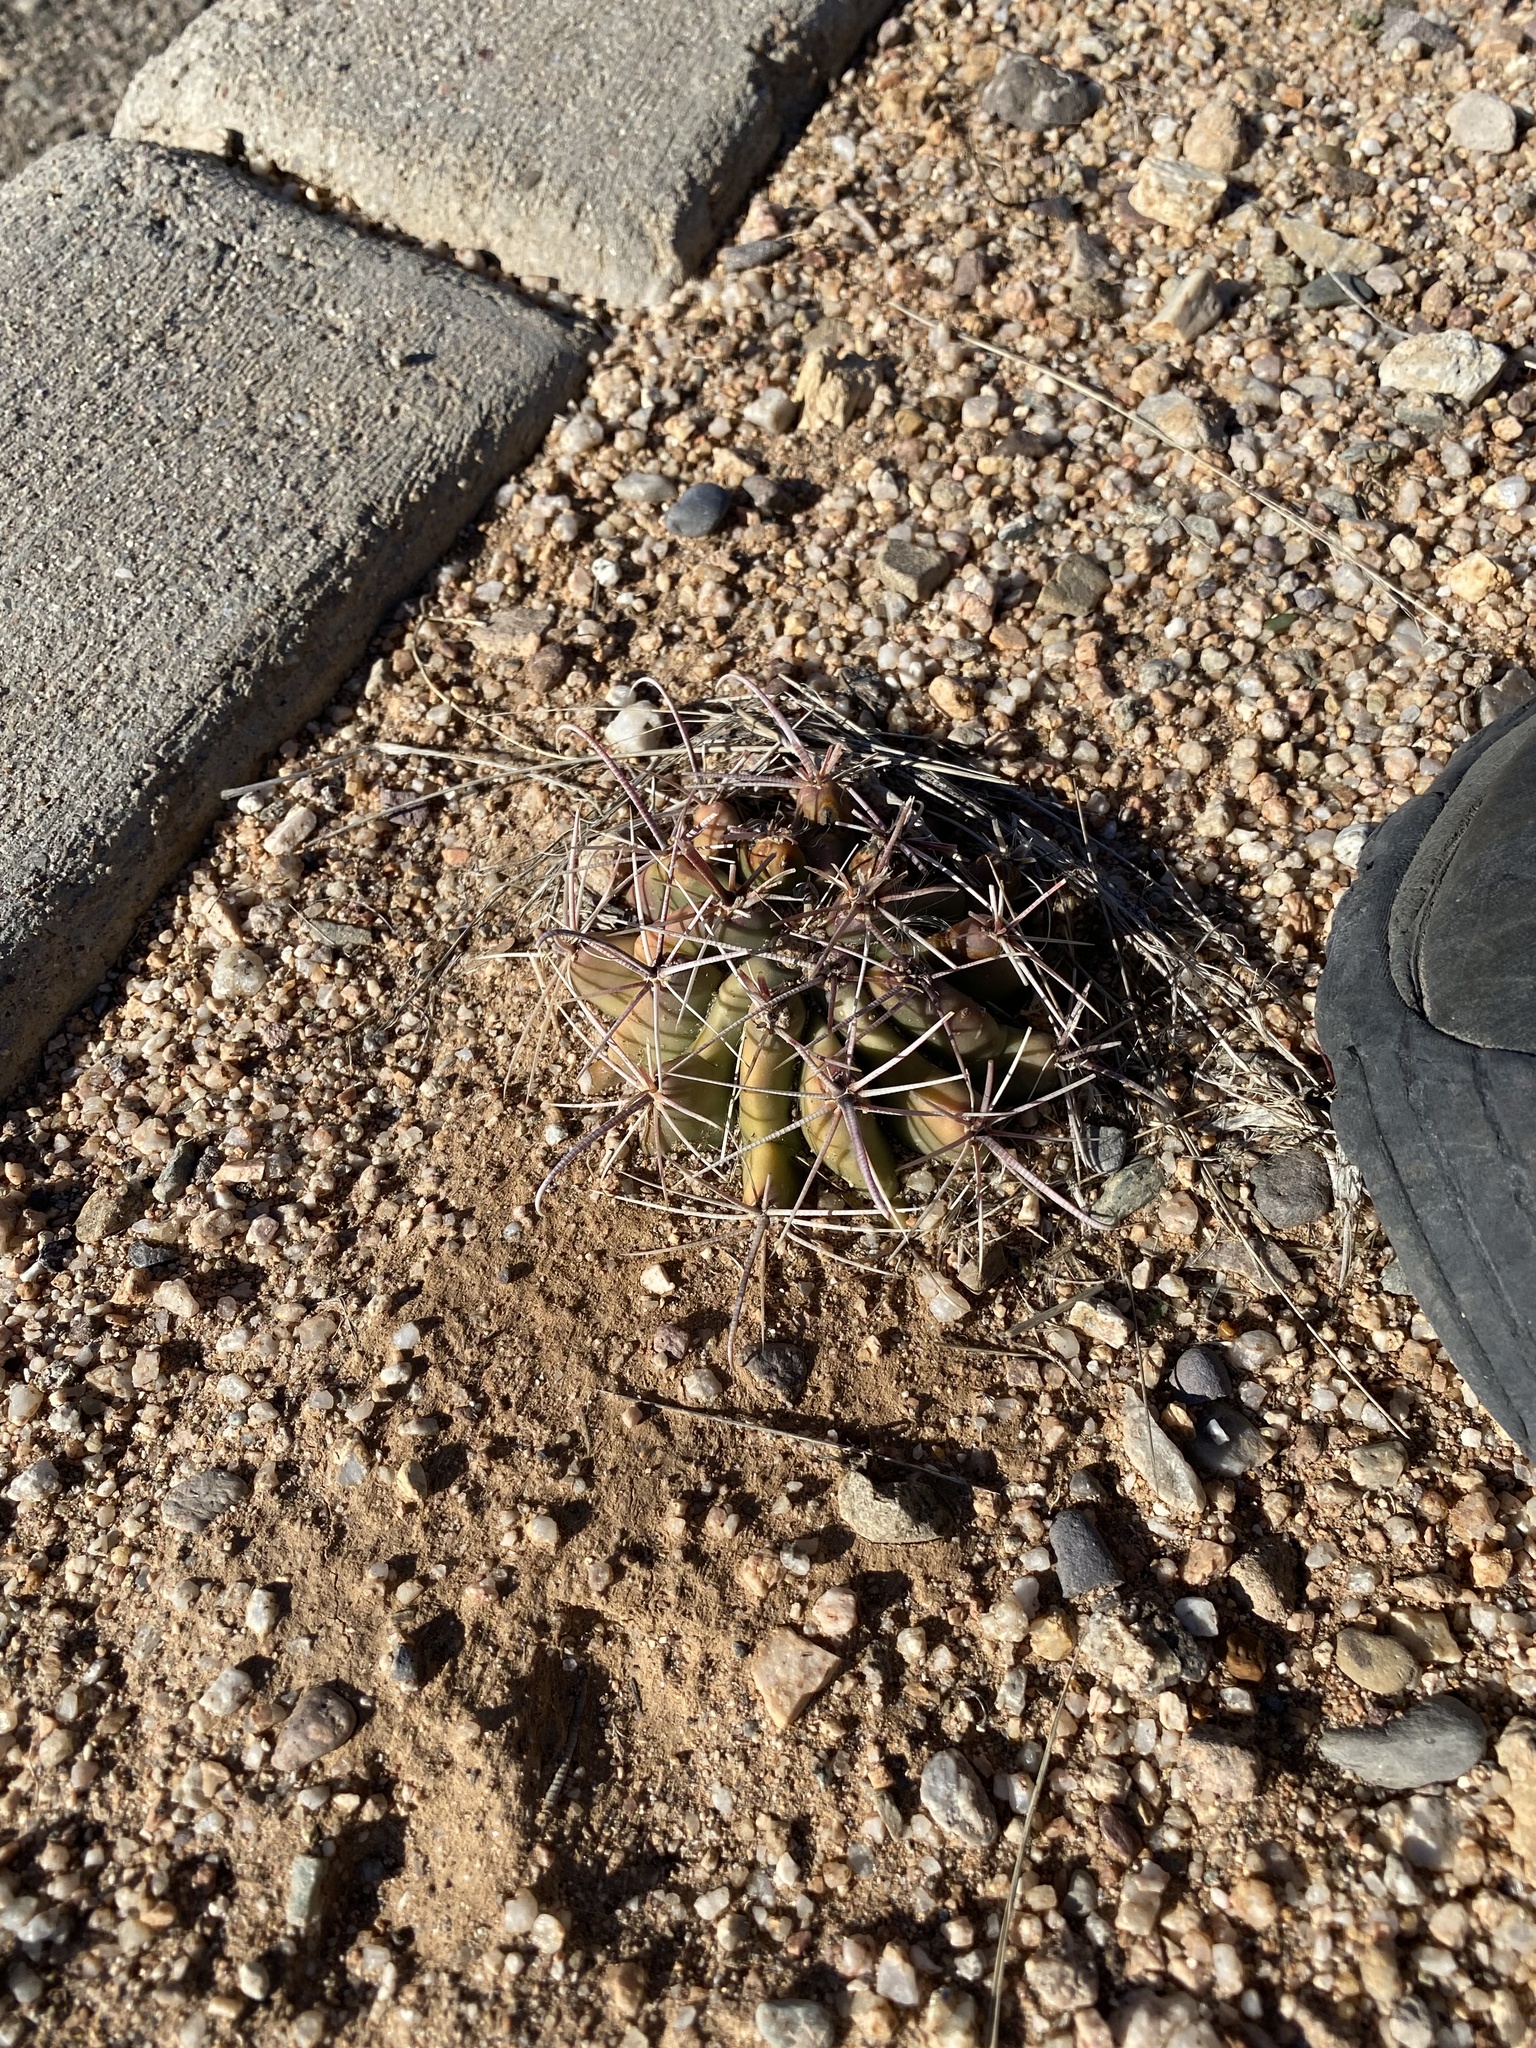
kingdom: Plantae
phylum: Tracheophyta
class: Magnoliopsida
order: Caryophyllales
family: Cactaceae
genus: Ferocactus
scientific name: Ferocactus wislizeni
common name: Candy barrel cactus
